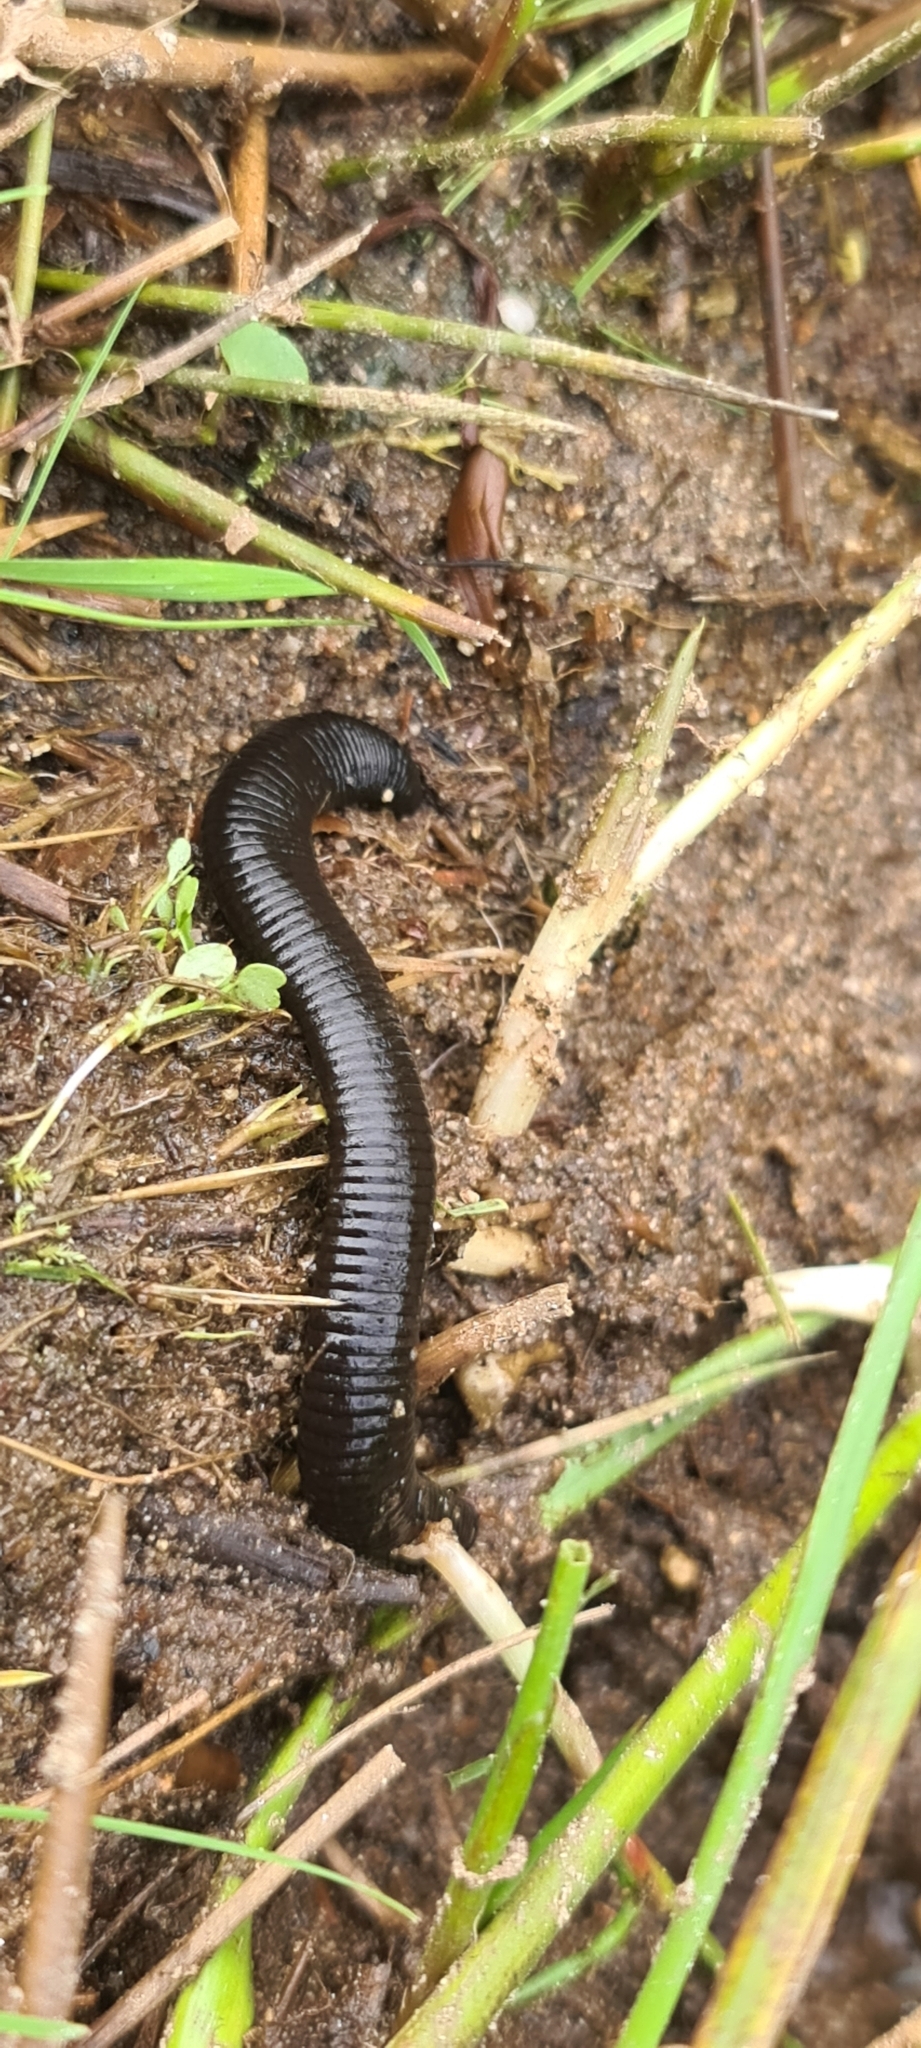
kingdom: Animalia
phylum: Annelida
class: Clitellata
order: Arhynchobdellida
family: Haemopidae
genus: Haemopis
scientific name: Haemopis sanguisuga
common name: Horse leech
